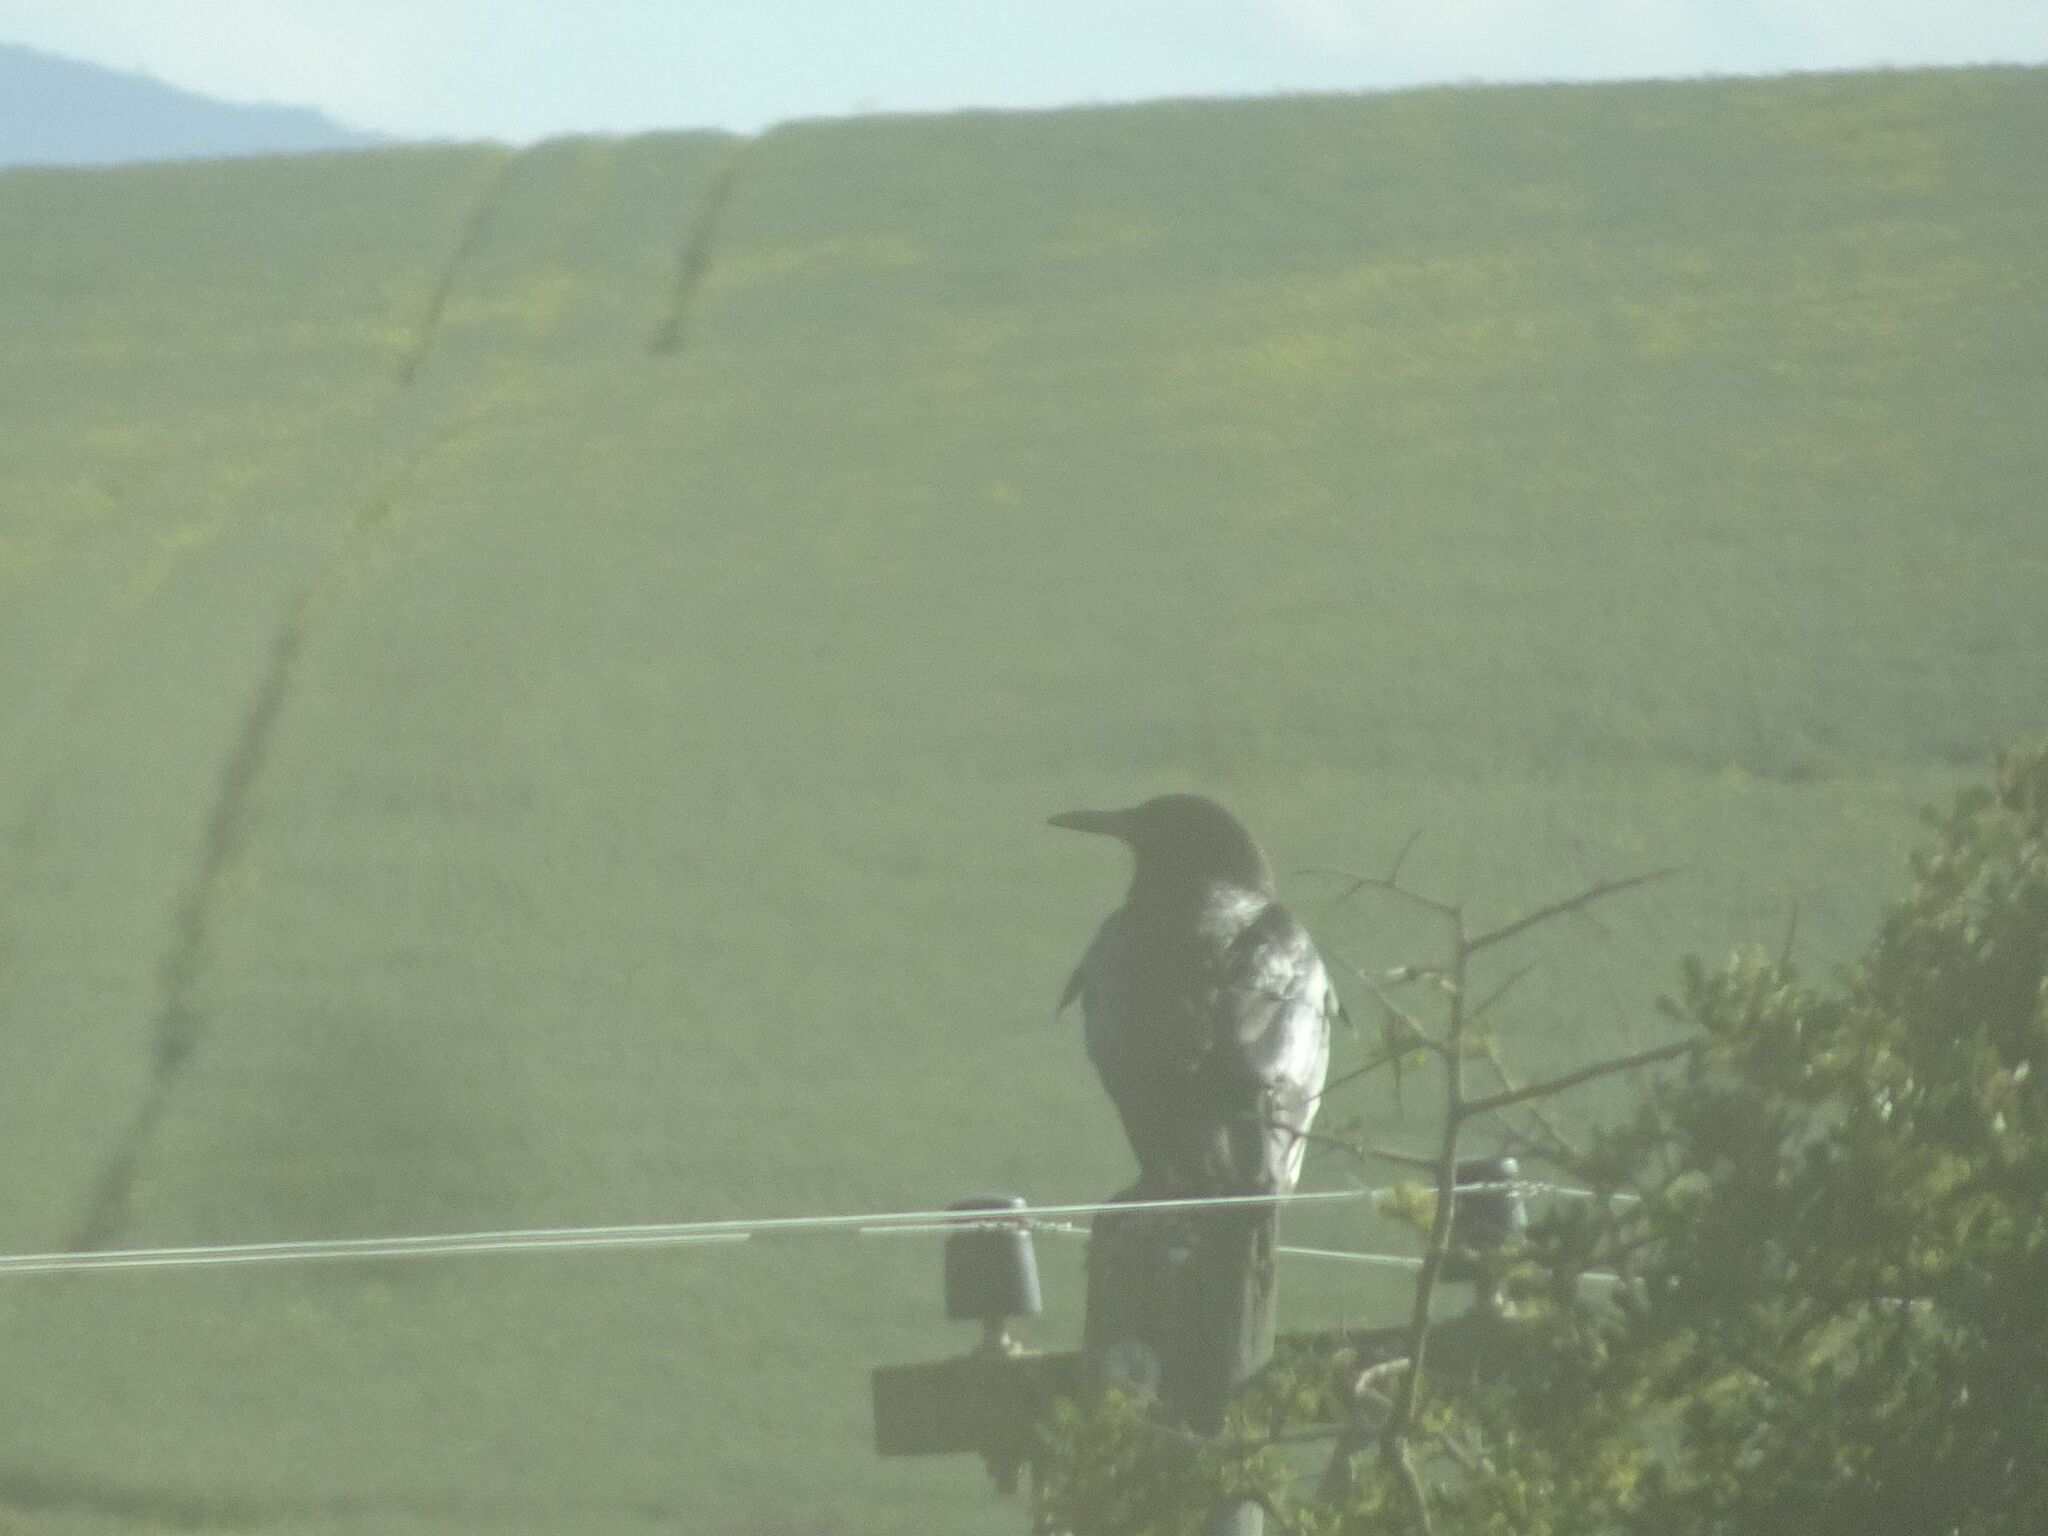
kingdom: Animalia
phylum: Chordata
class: Aves
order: Passeriformes
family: Corvidae
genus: Corvus
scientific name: Corvus capensis
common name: Cape crow
